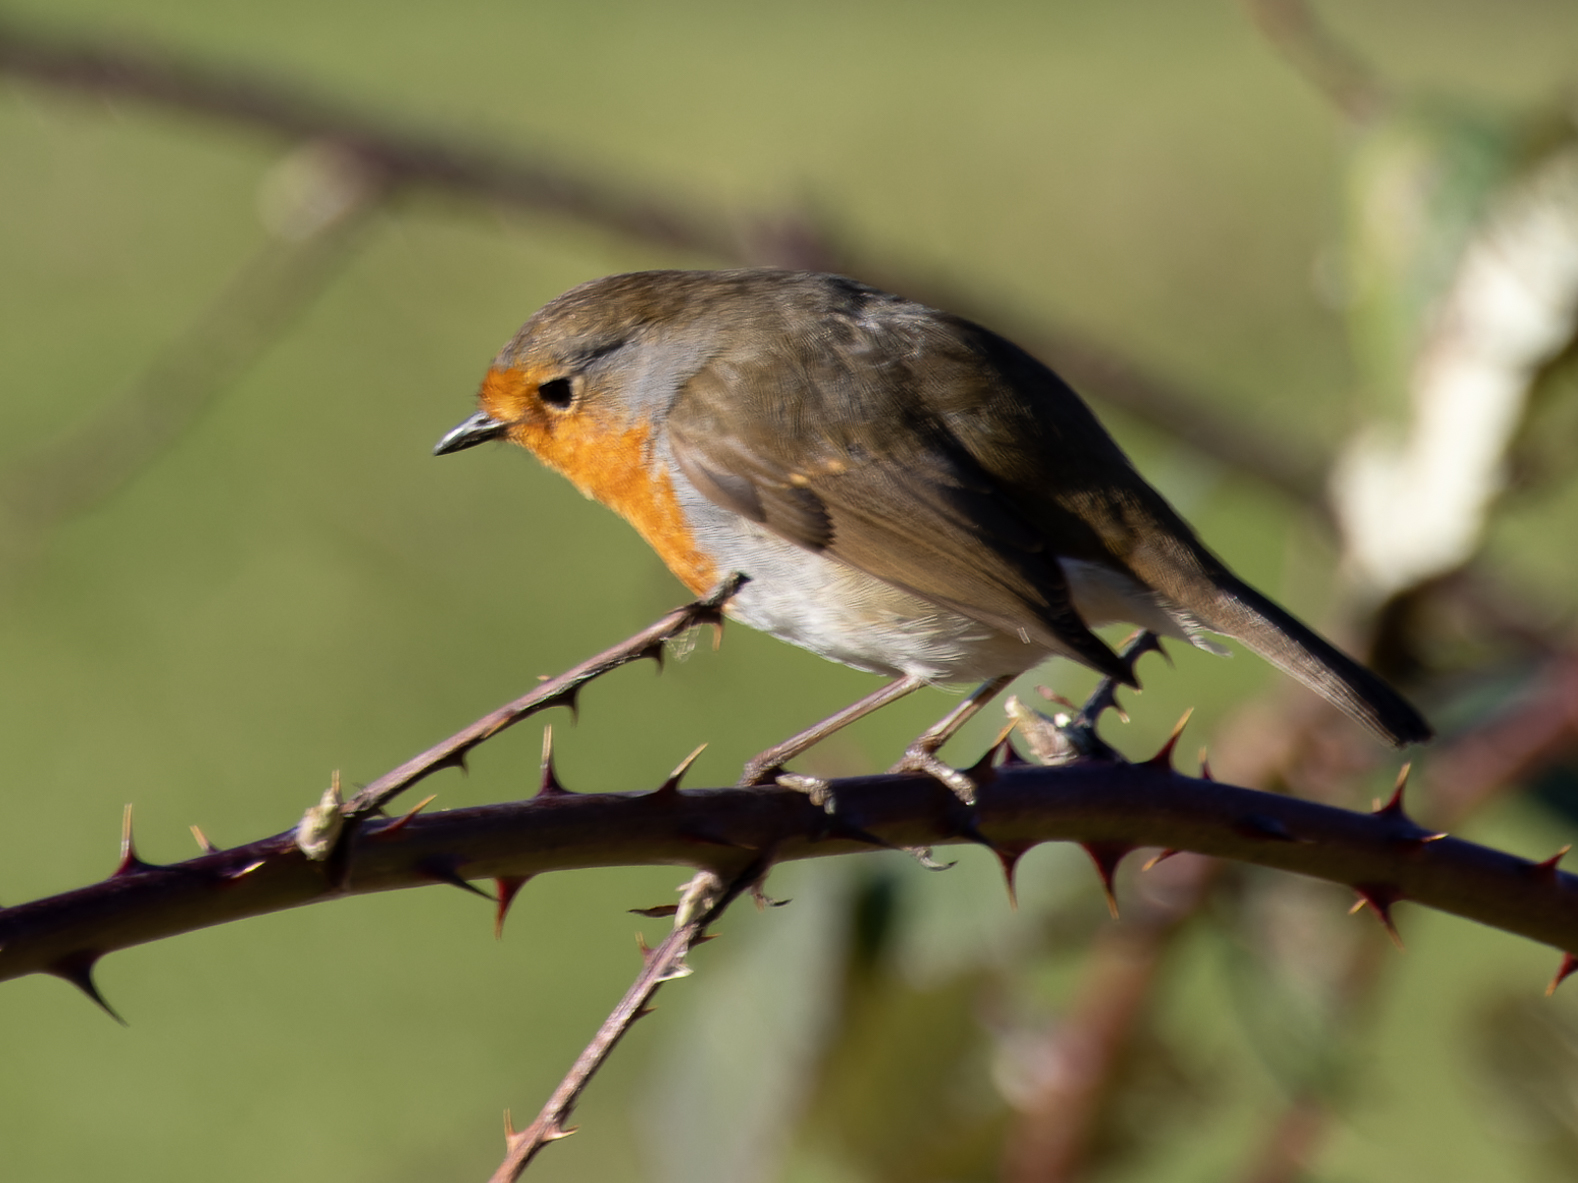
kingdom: Animalia
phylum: Chordata
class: Aves
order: Passeriformes
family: Muscicapidae
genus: Erithacus
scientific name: Erithacus rubecula
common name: European robin
